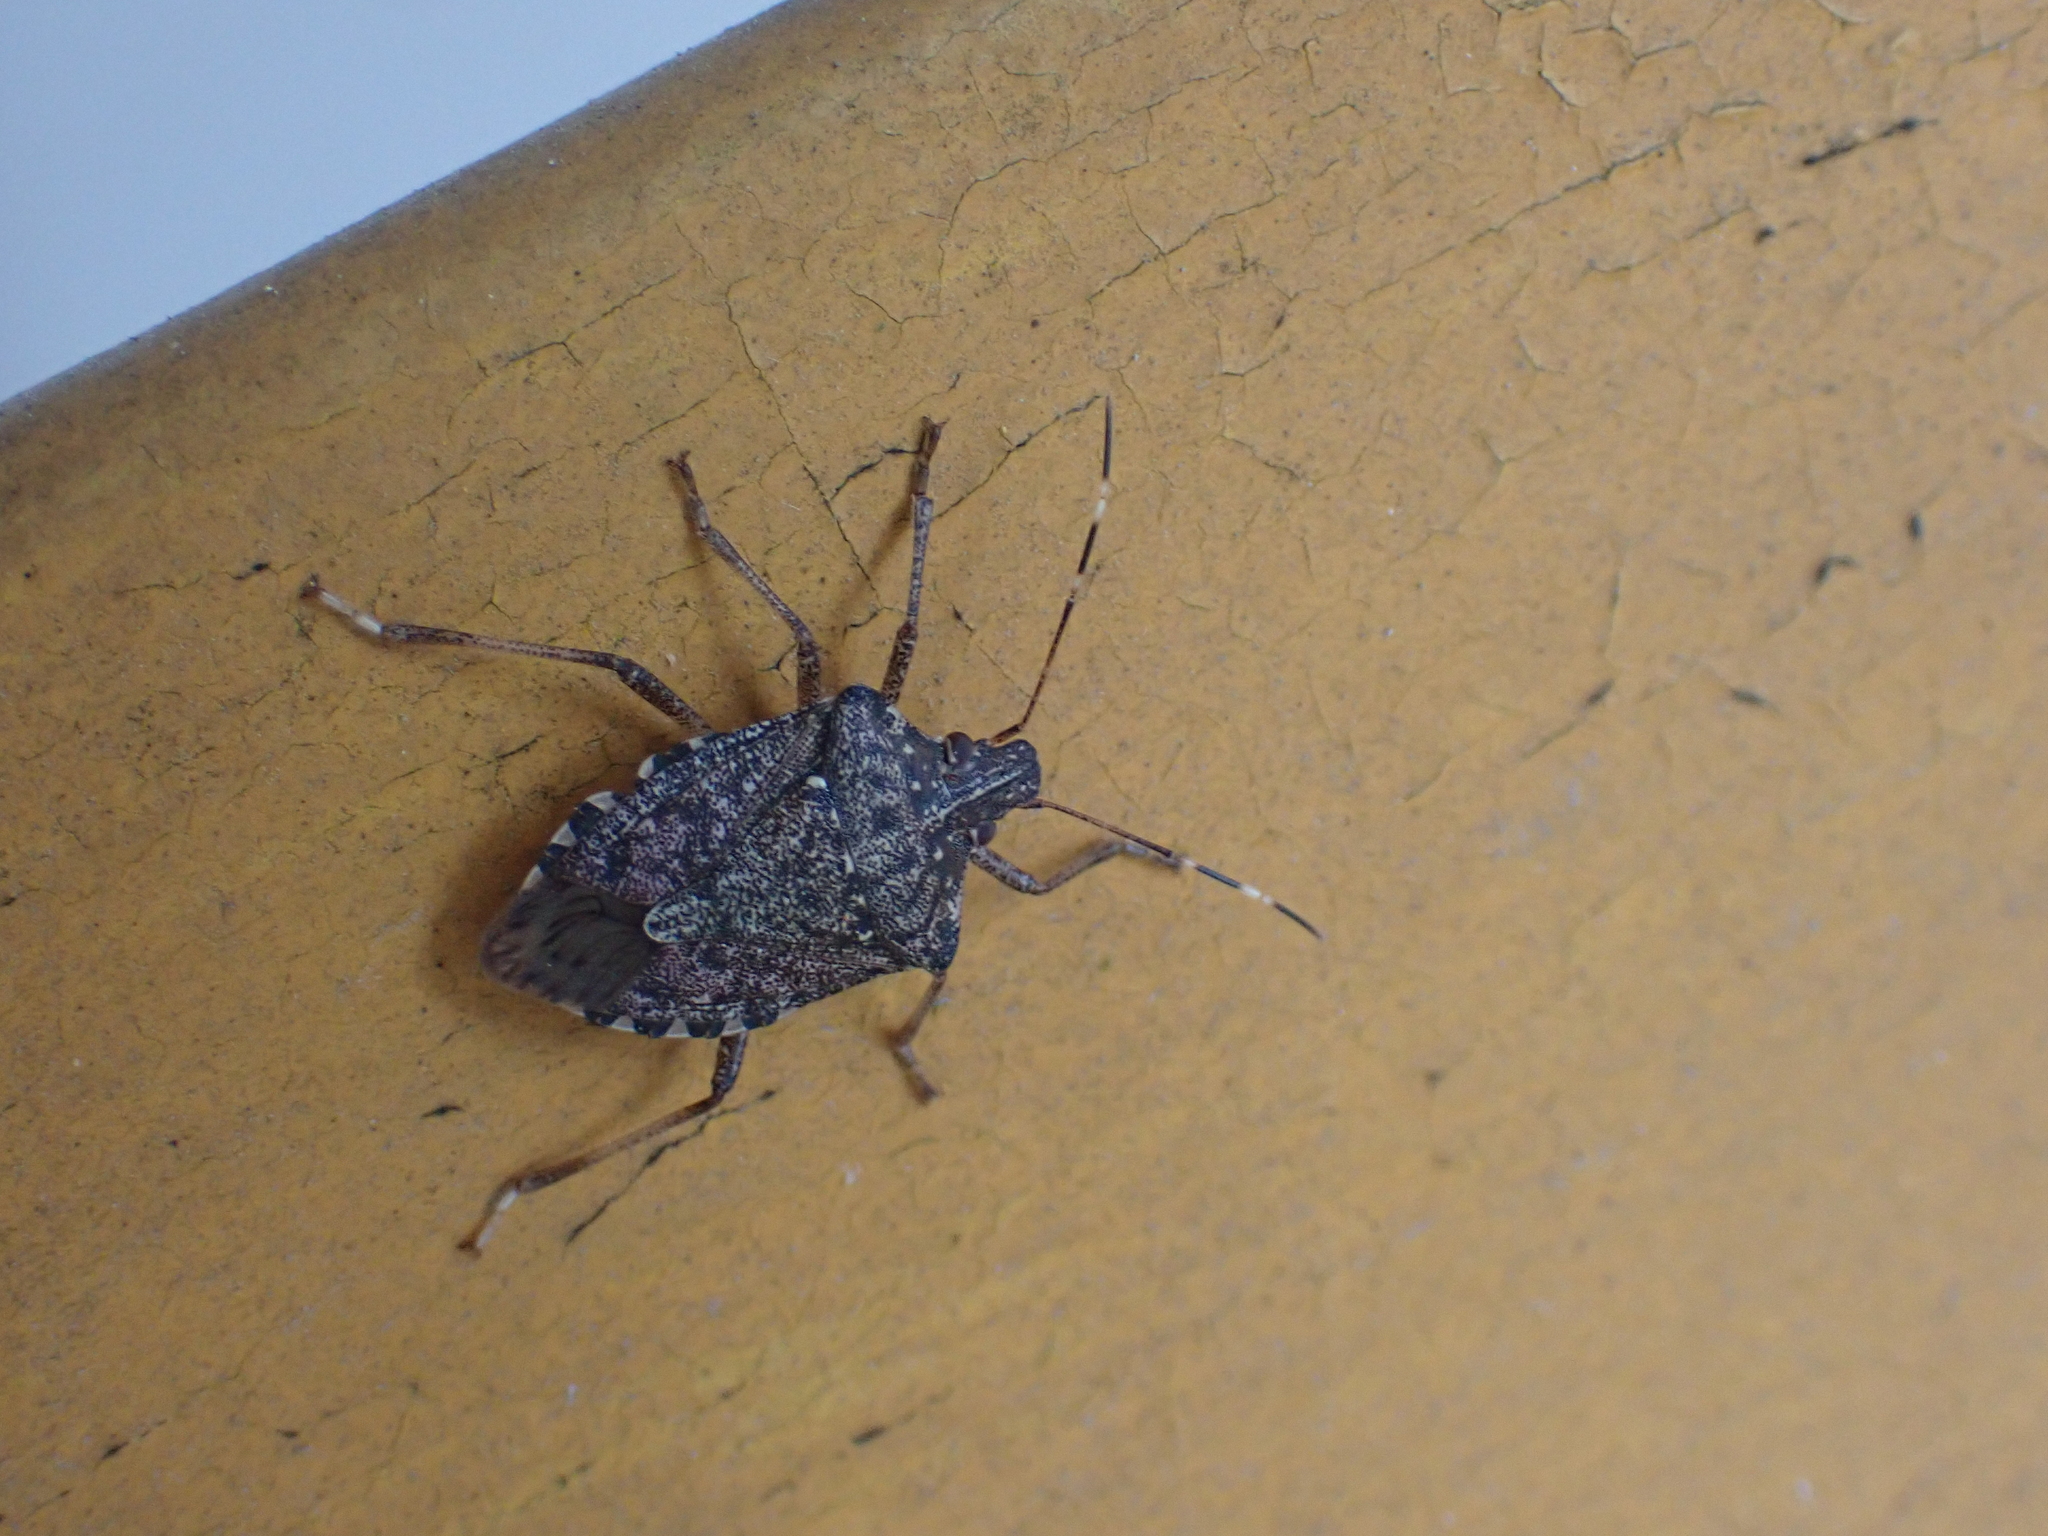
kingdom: Animalia
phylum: Arthropoda
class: Insecta
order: Hemiptera
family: Pentatomidae
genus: Halyomorpha
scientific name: Halyomorpha halys
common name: Brown marmorated stink bug
